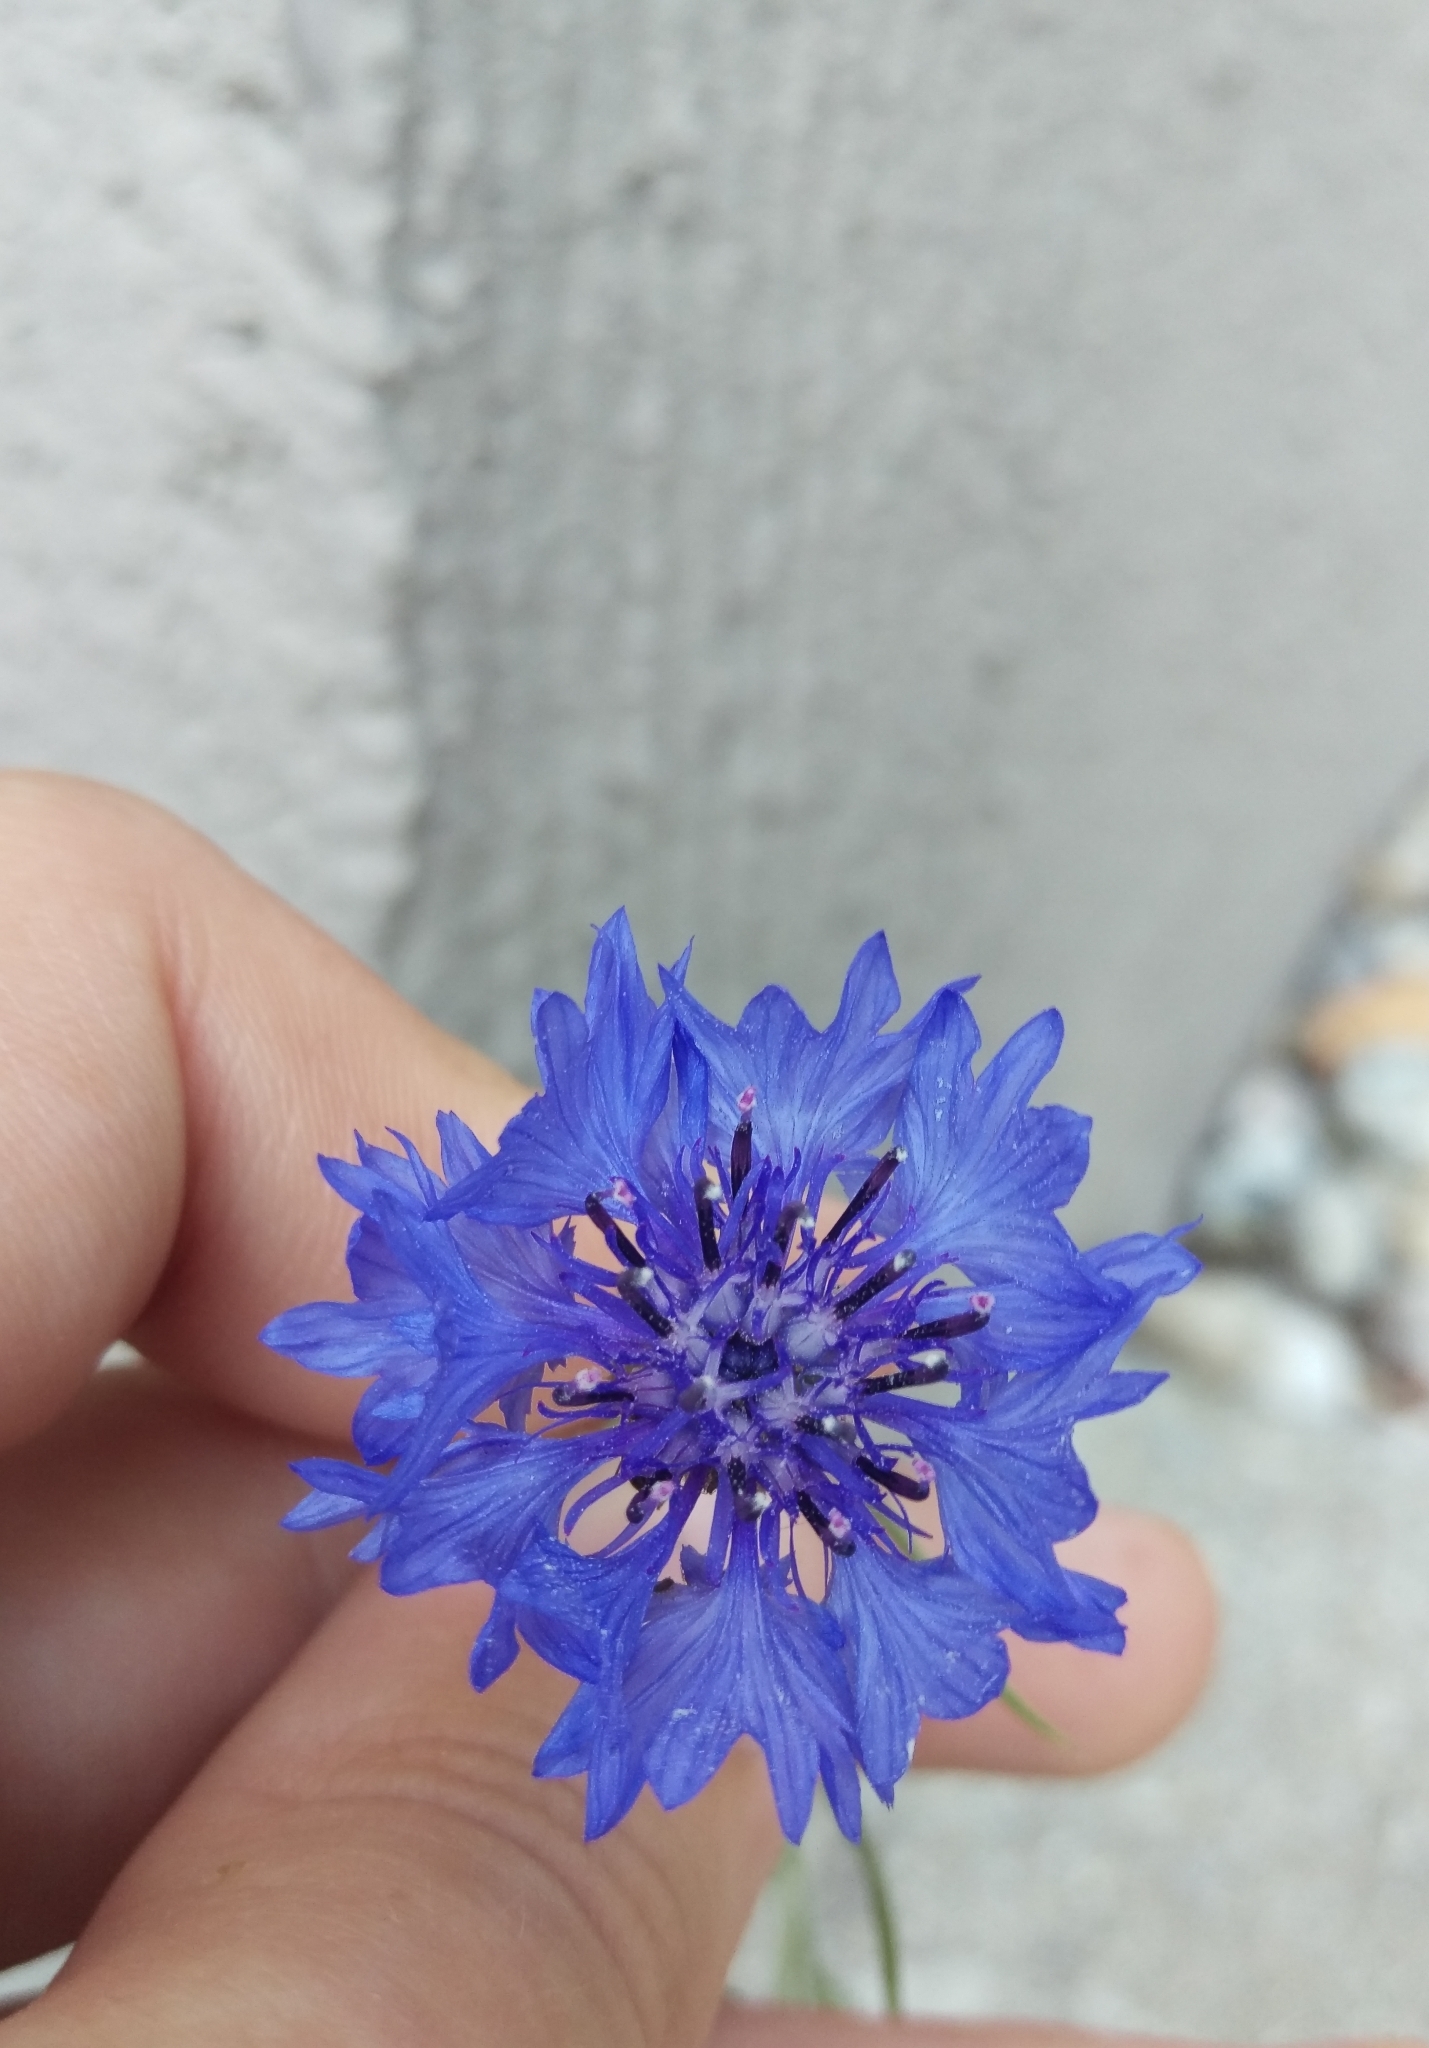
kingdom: Plantae
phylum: Tracheophyta
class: Magnoliopsida
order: Asterales
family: Asteraceae
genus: Centaurea
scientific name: Centaurea cyanus
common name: Cornflower
